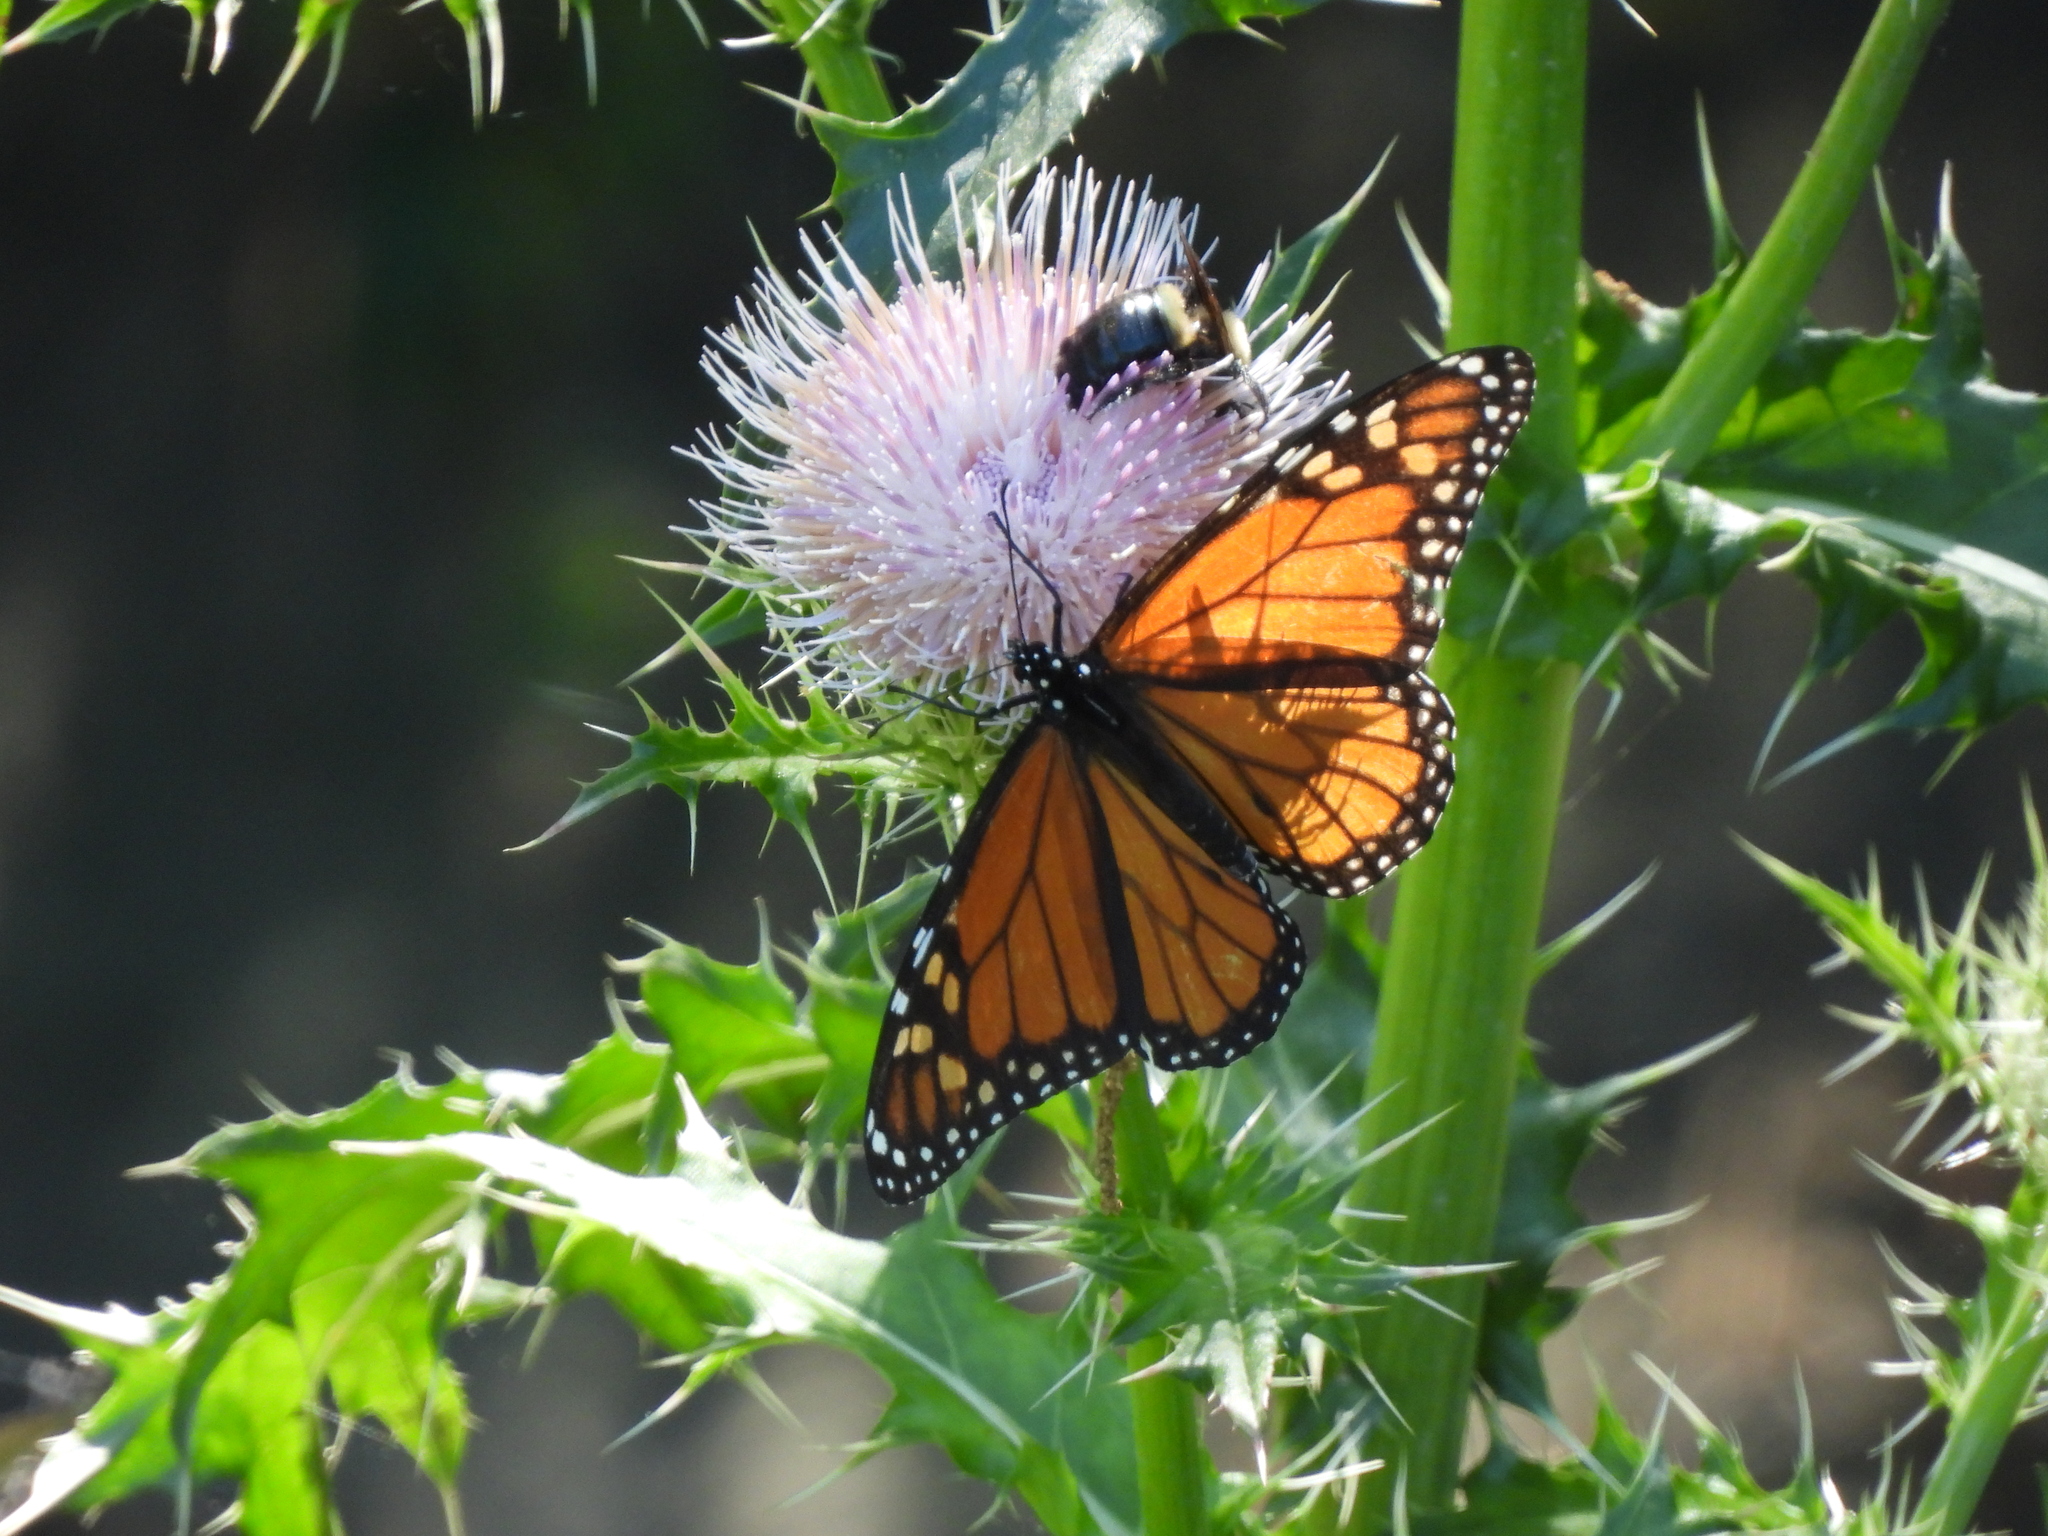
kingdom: Animalia
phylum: Arthropoda
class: Insecta
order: Hymenoptera
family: Apidae
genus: Xylocopa
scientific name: Xylocopa virginica
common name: Carpenter bee
